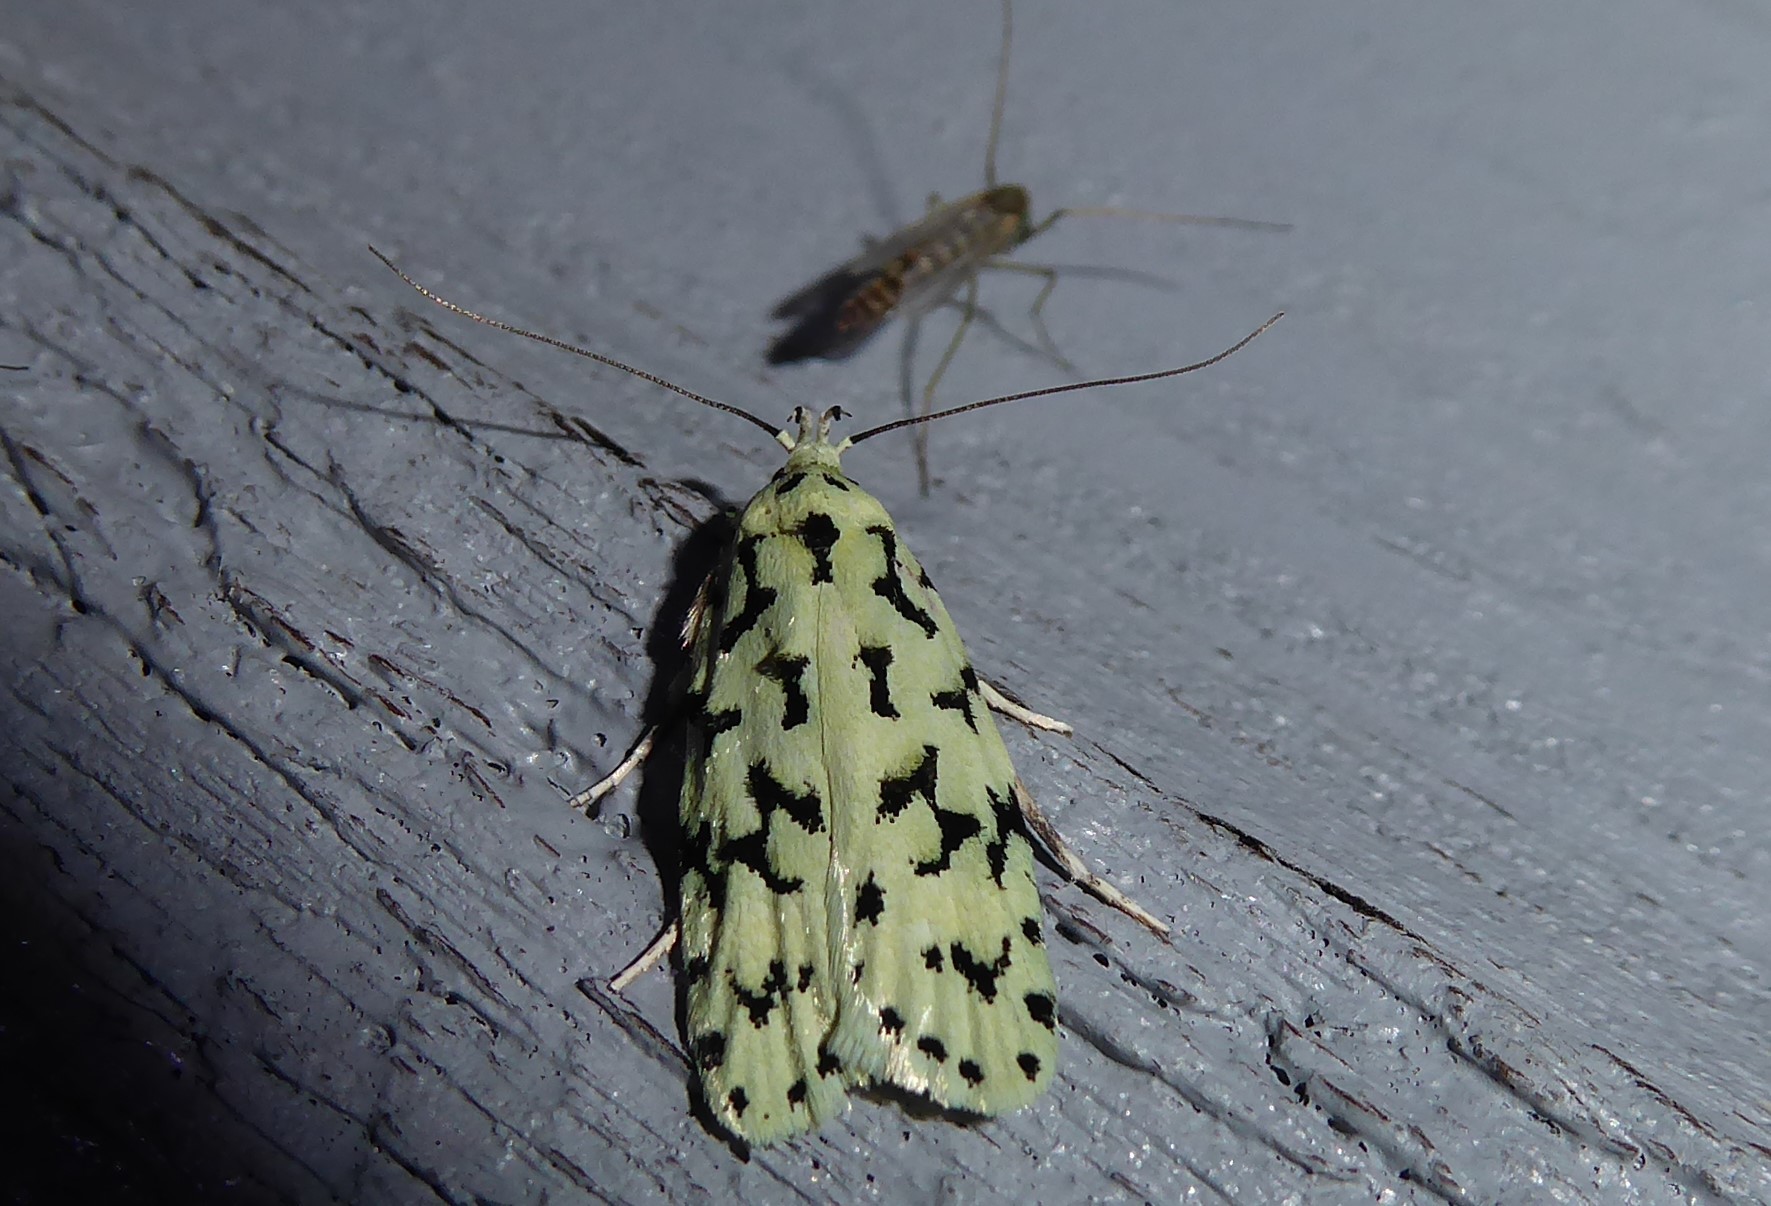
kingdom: Animalia
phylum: Arthropoda
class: Insecta
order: Lepidoptera
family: Oecophoridae
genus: Izatha
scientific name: Izatha huttoni
